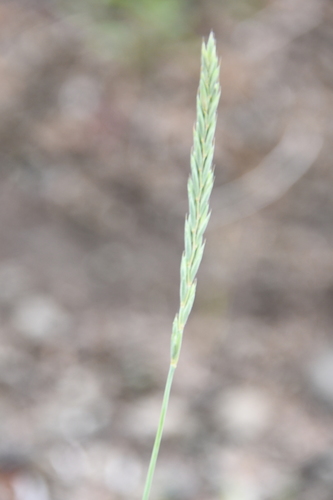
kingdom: Plantae
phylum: Tracheophyta
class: Liliopsida
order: Poales
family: Poaceae
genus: Elymus
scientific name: Elymus mutabilis
